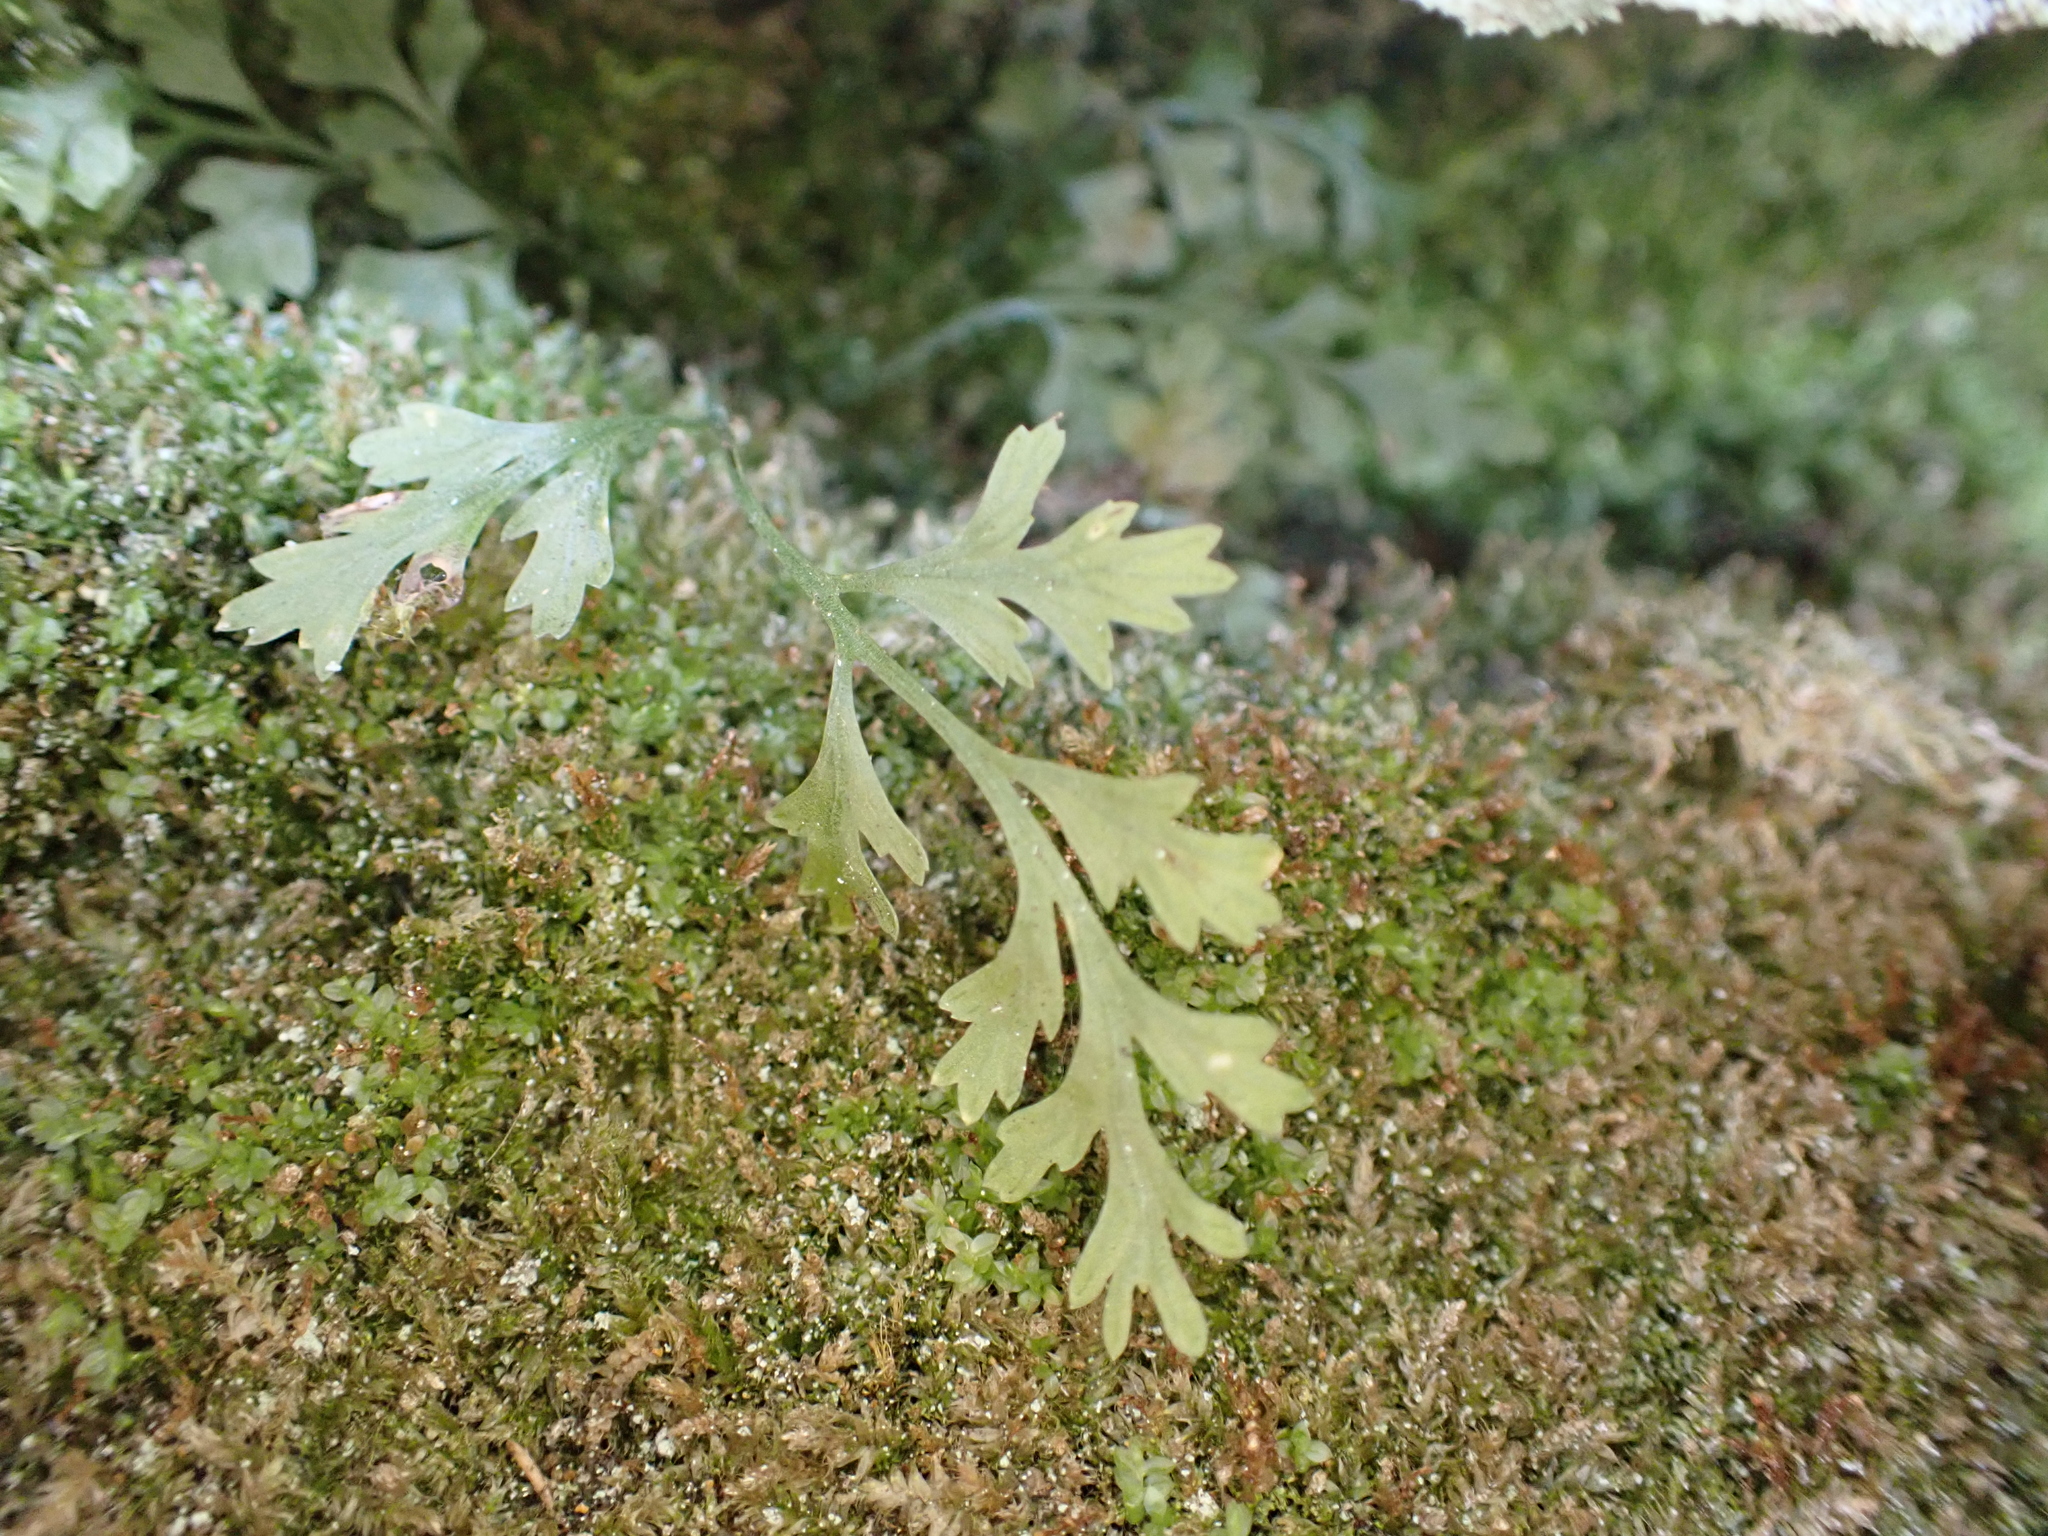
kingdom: Plantae
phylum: Tracheophyta
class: Polypodiopsida
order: Polypodiales
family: Aspleniaceae
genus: Asplenium
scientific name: Asplenium montanum
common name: Mountain spleenwort
